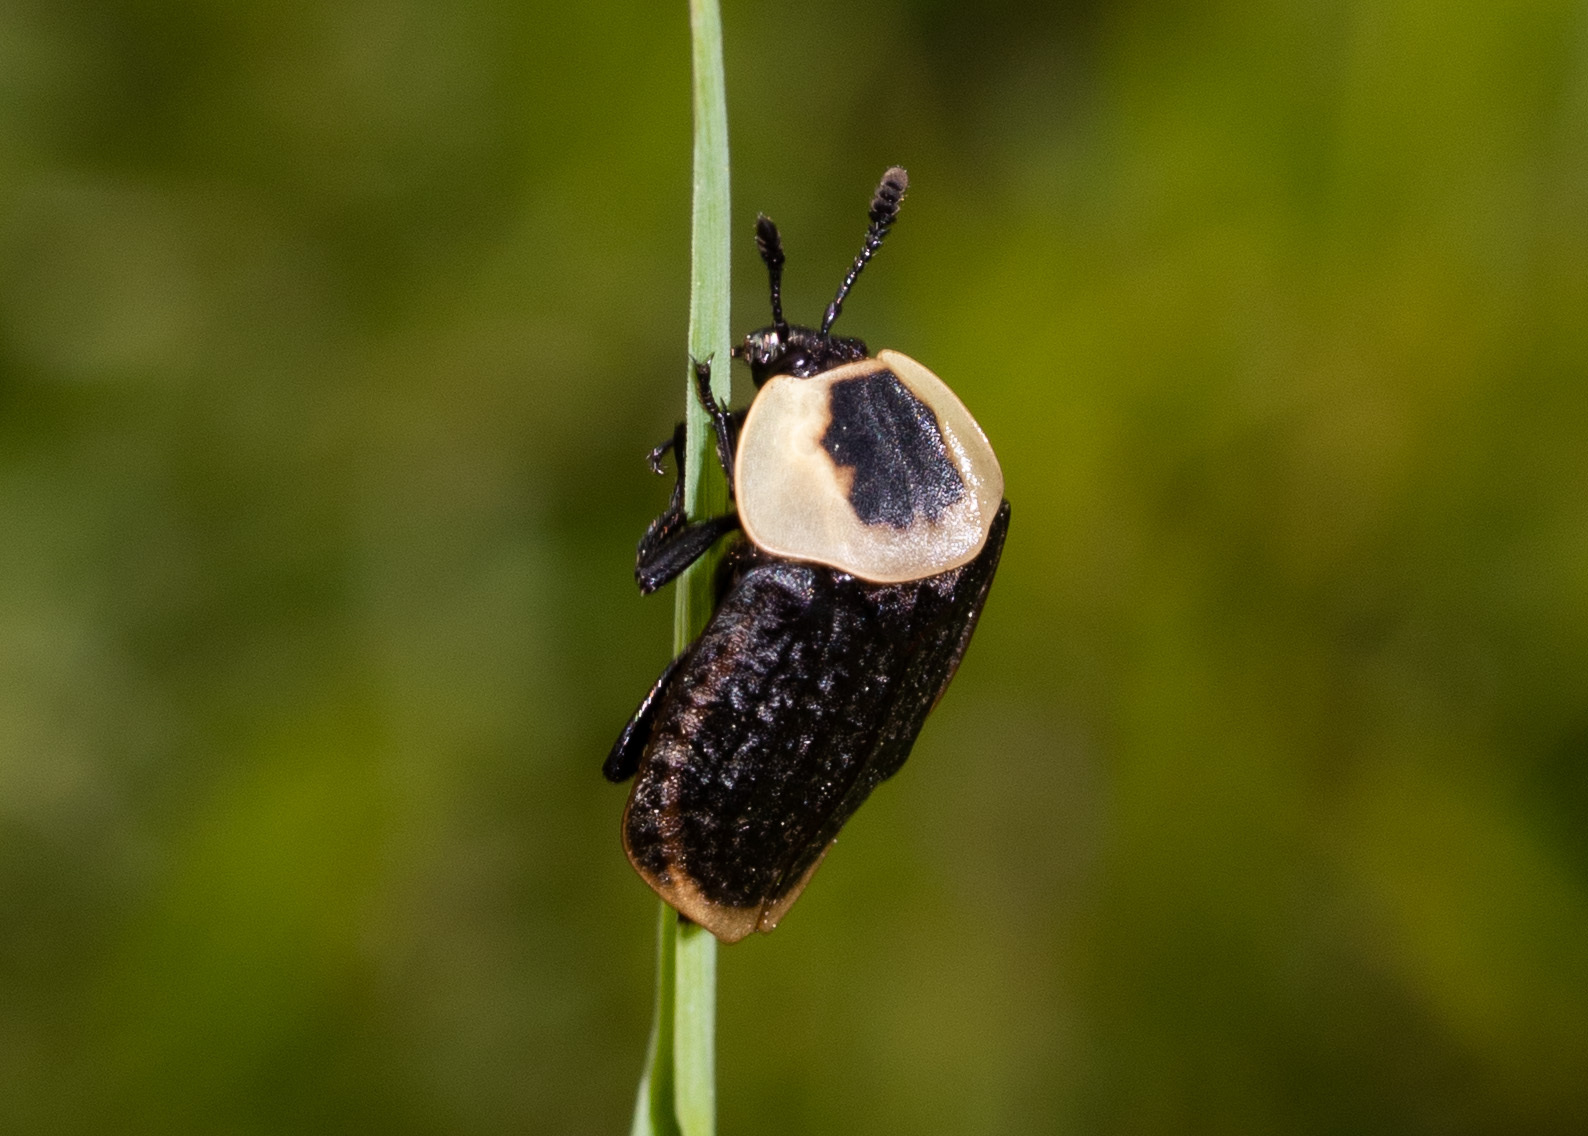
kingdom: Animalia
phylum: Arthropoda
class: Insecta
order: Coleoptera
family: Staphylinidae
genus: Necrophila
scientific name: Necrophila americana
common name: American carrion beetle
